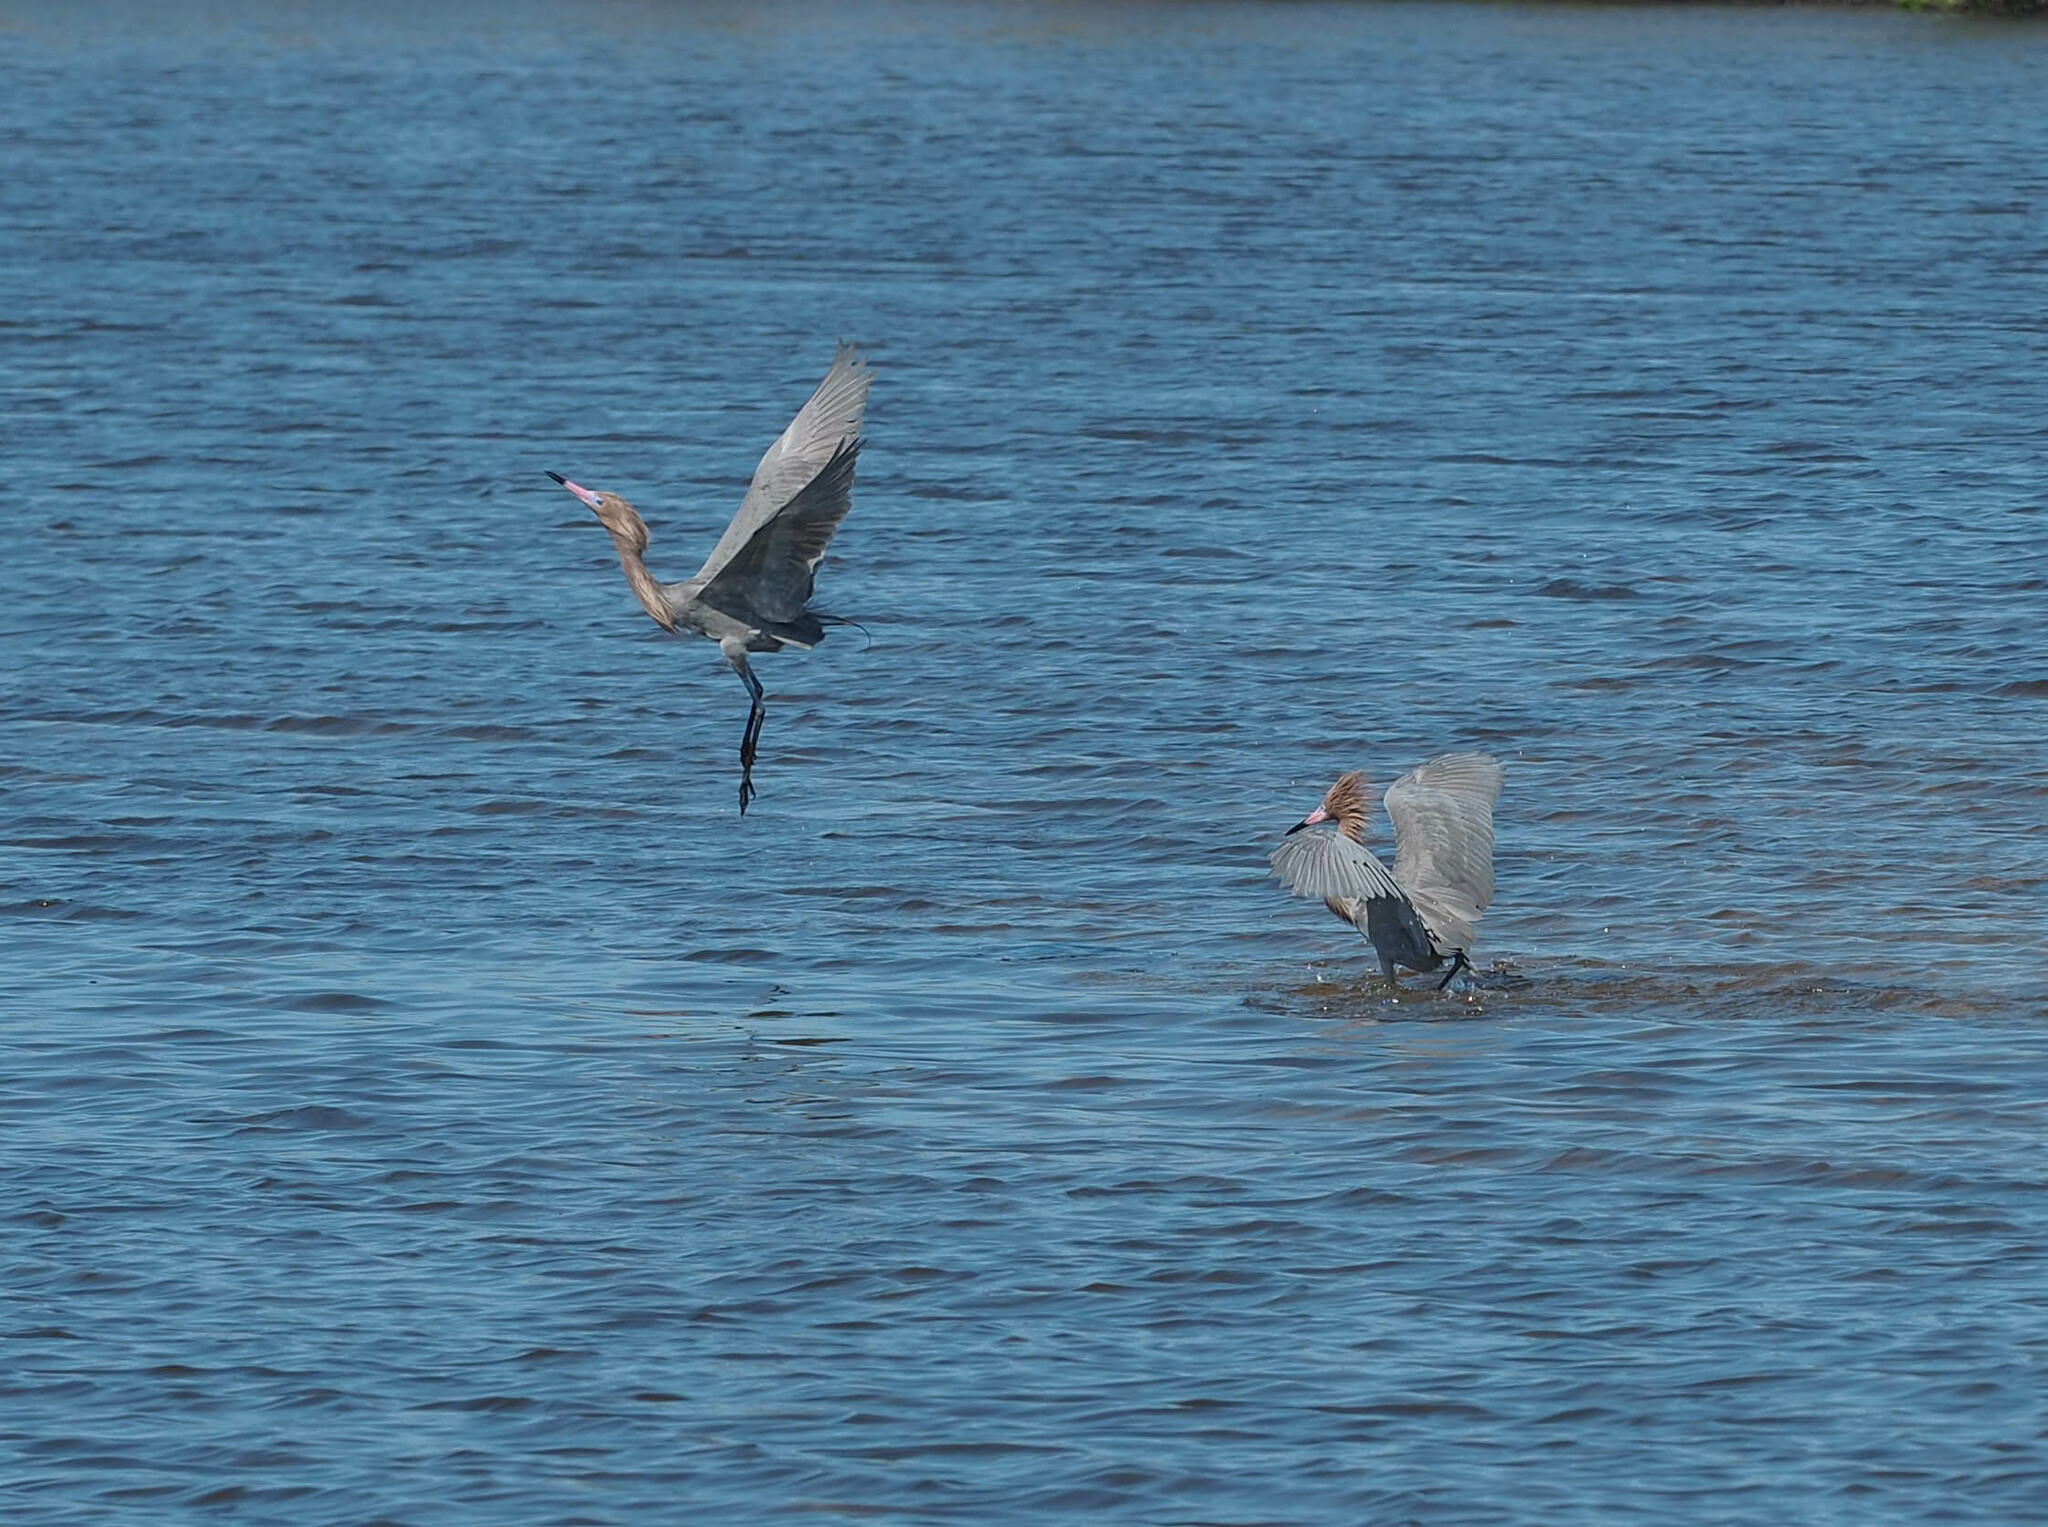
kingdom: Animalia
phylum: Chordata
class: Aves
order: Pelecaniformes
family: Ardeidae
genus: Egretta
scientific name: Egretta rufescens
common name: Reddish egret
